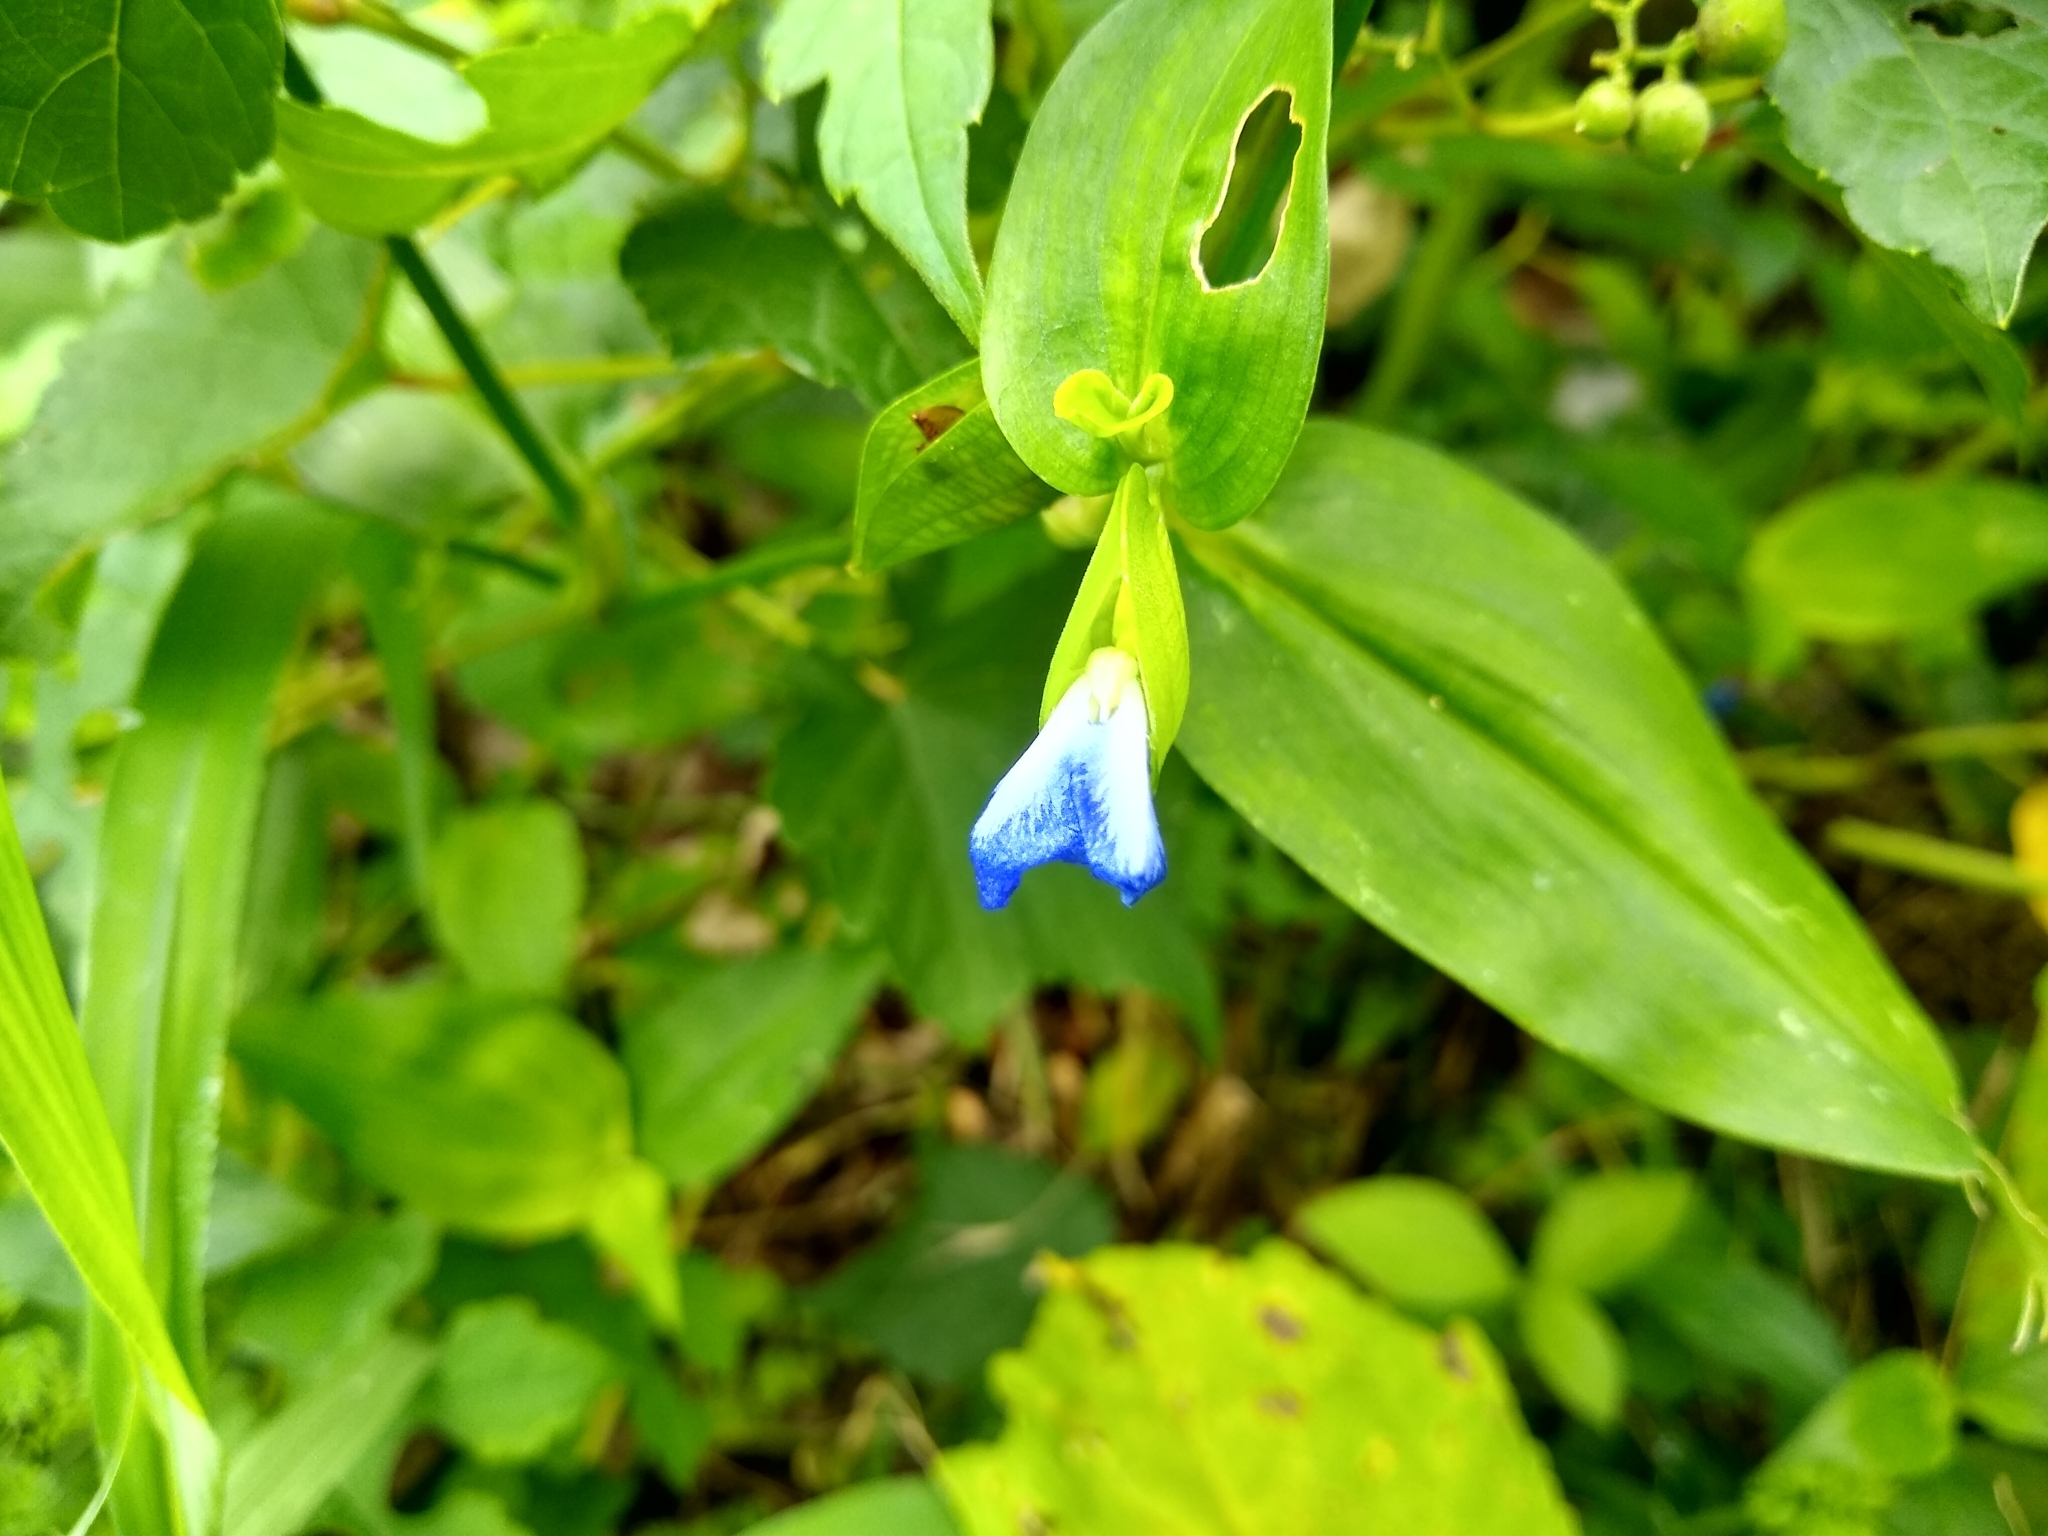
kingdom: Plantae
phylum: Tracheophyta
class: Liliopsida
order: Commelinales
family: Commelinaceae
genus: Commelina
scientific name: Commelina communis
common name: Asiatic dayflower
